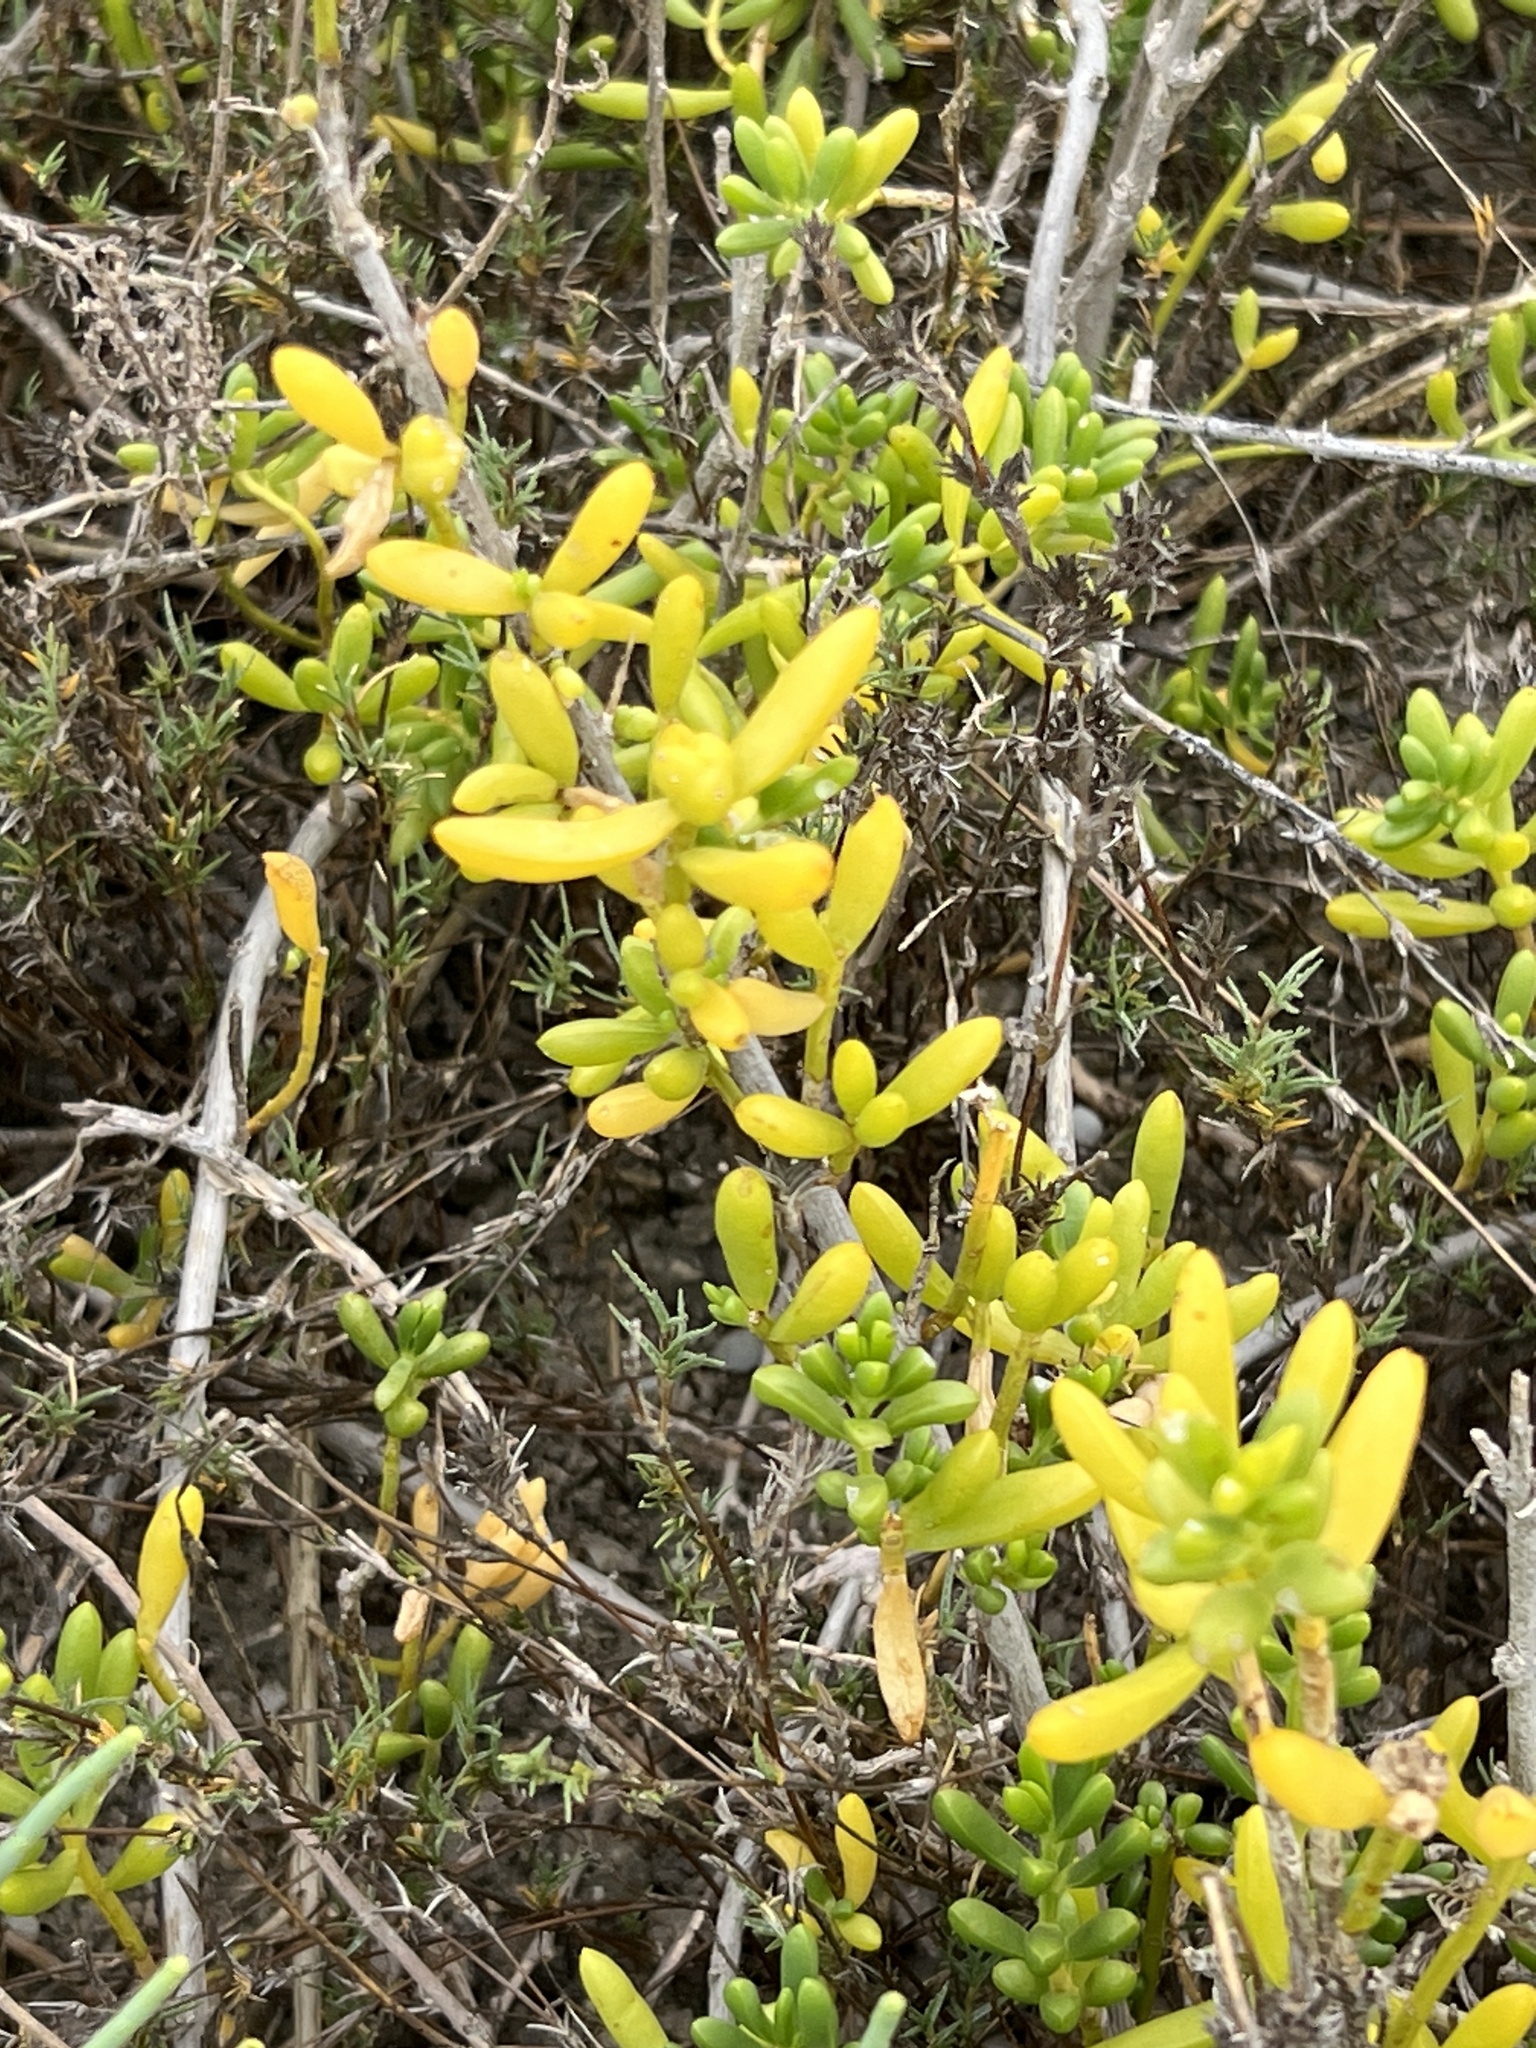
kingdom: Plantae
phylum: Tracheophyta
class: Magnoliopsida
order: Brassicales
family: Bataceae
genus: Batis
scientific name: Batis maritima
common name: Turtleweed
